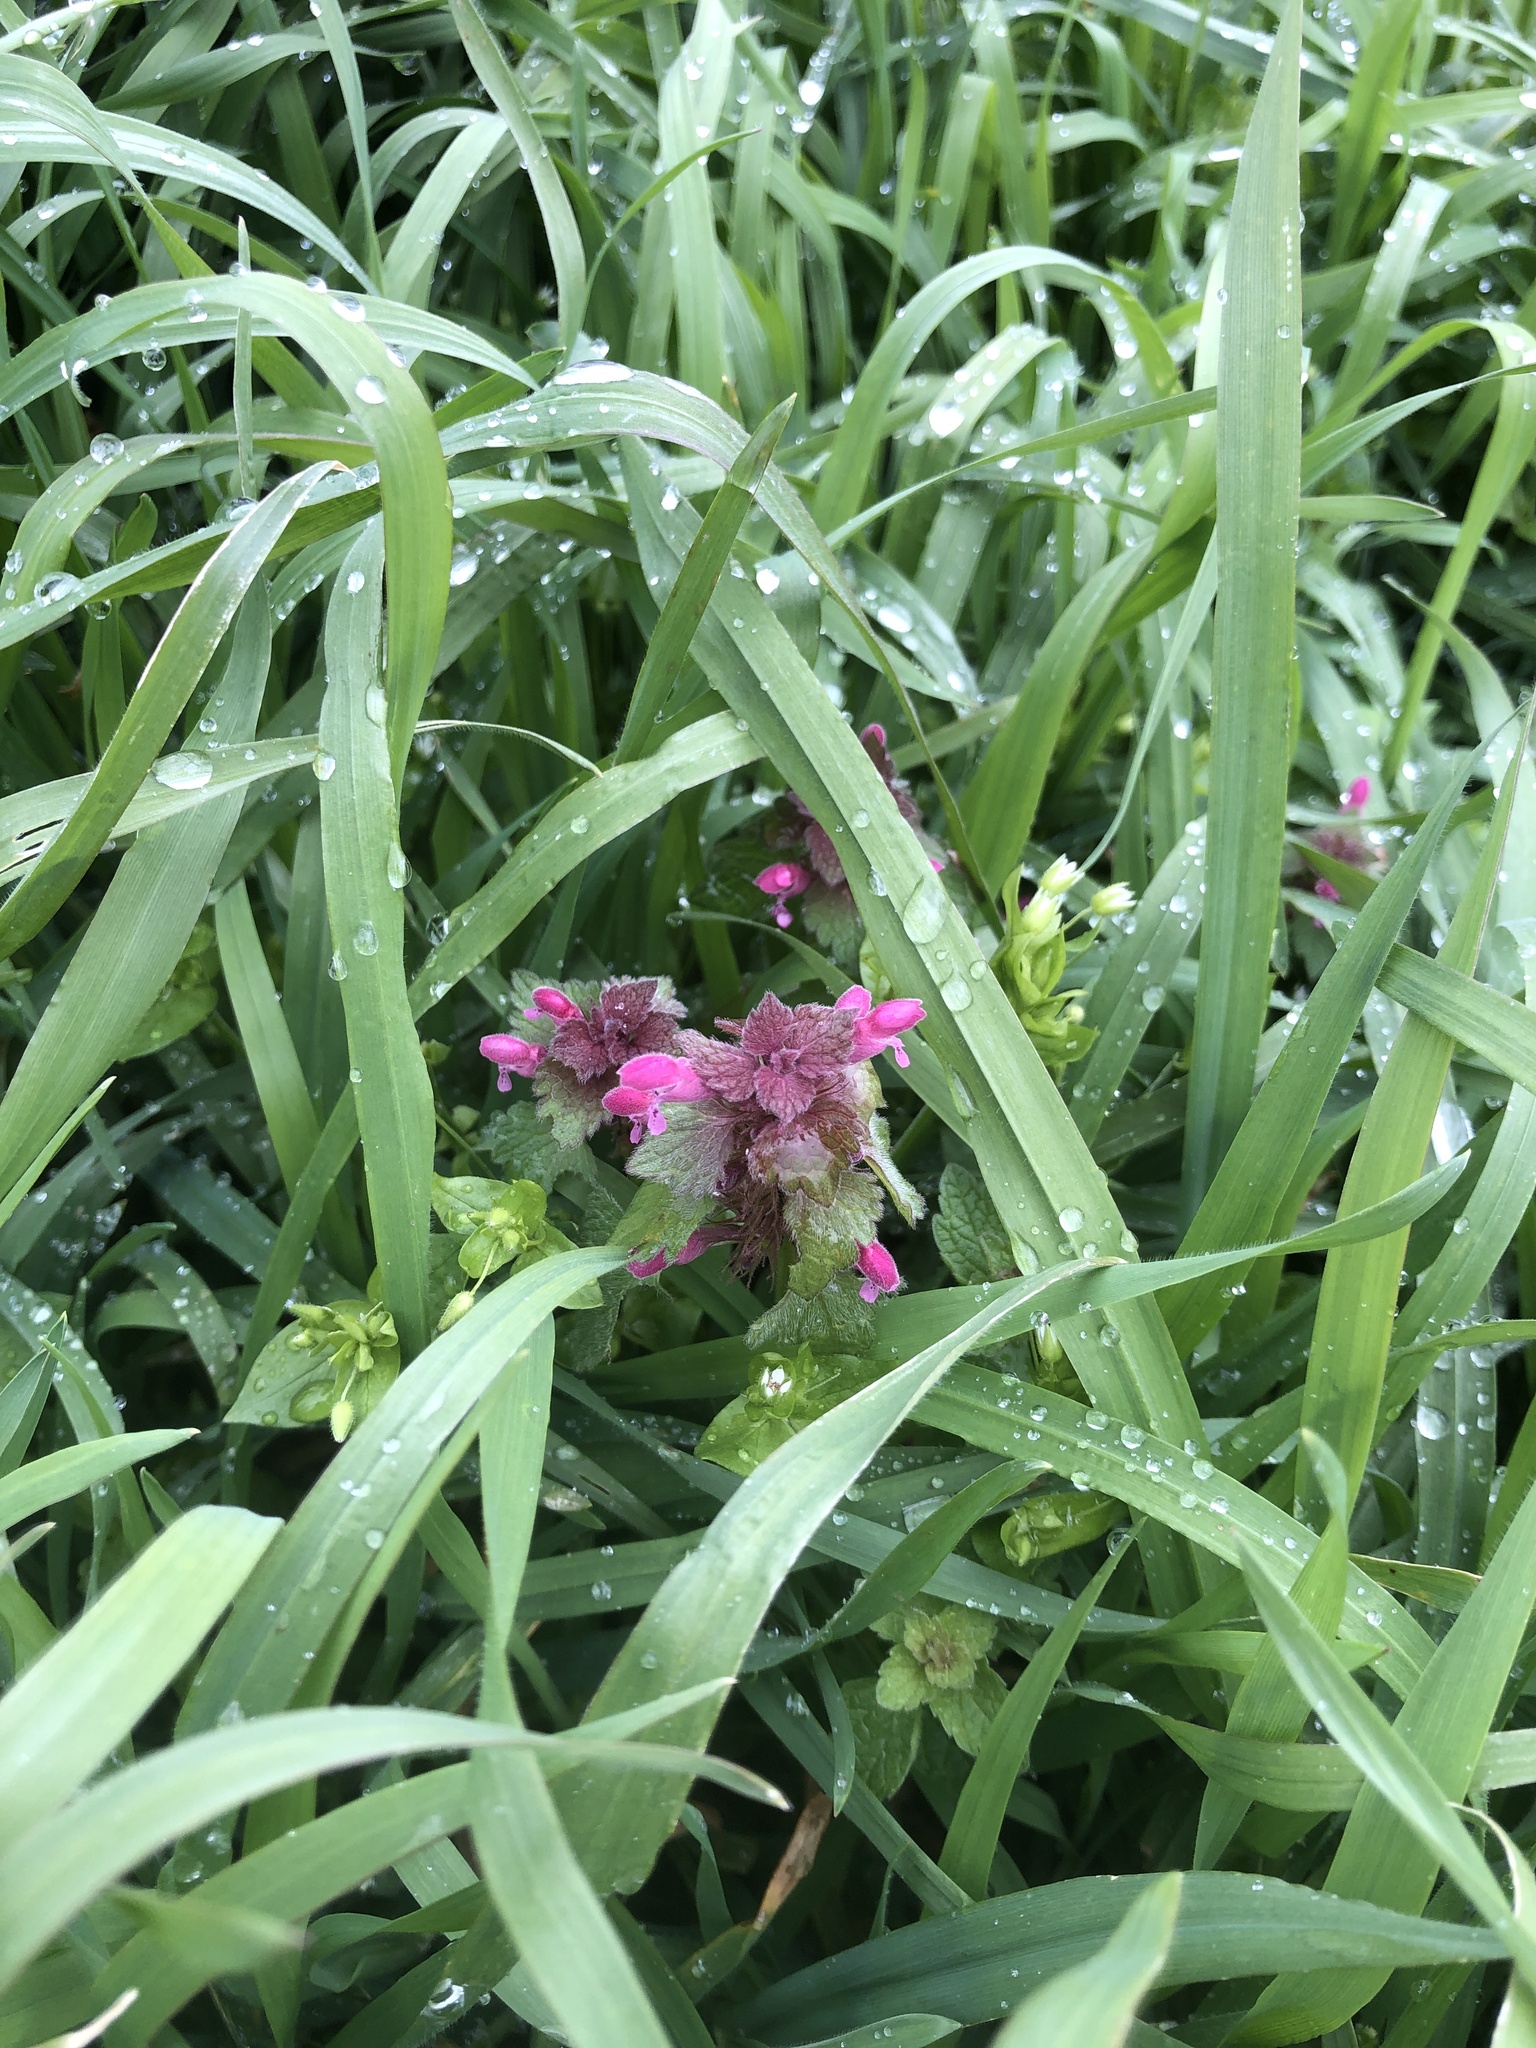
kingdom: Plantae
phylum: Tracheophyta
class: Magnoliopsida
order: Lamiales
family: Lamiaceae
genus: Lamium
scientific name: Lamium purpureum
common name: Red dead-nettle
